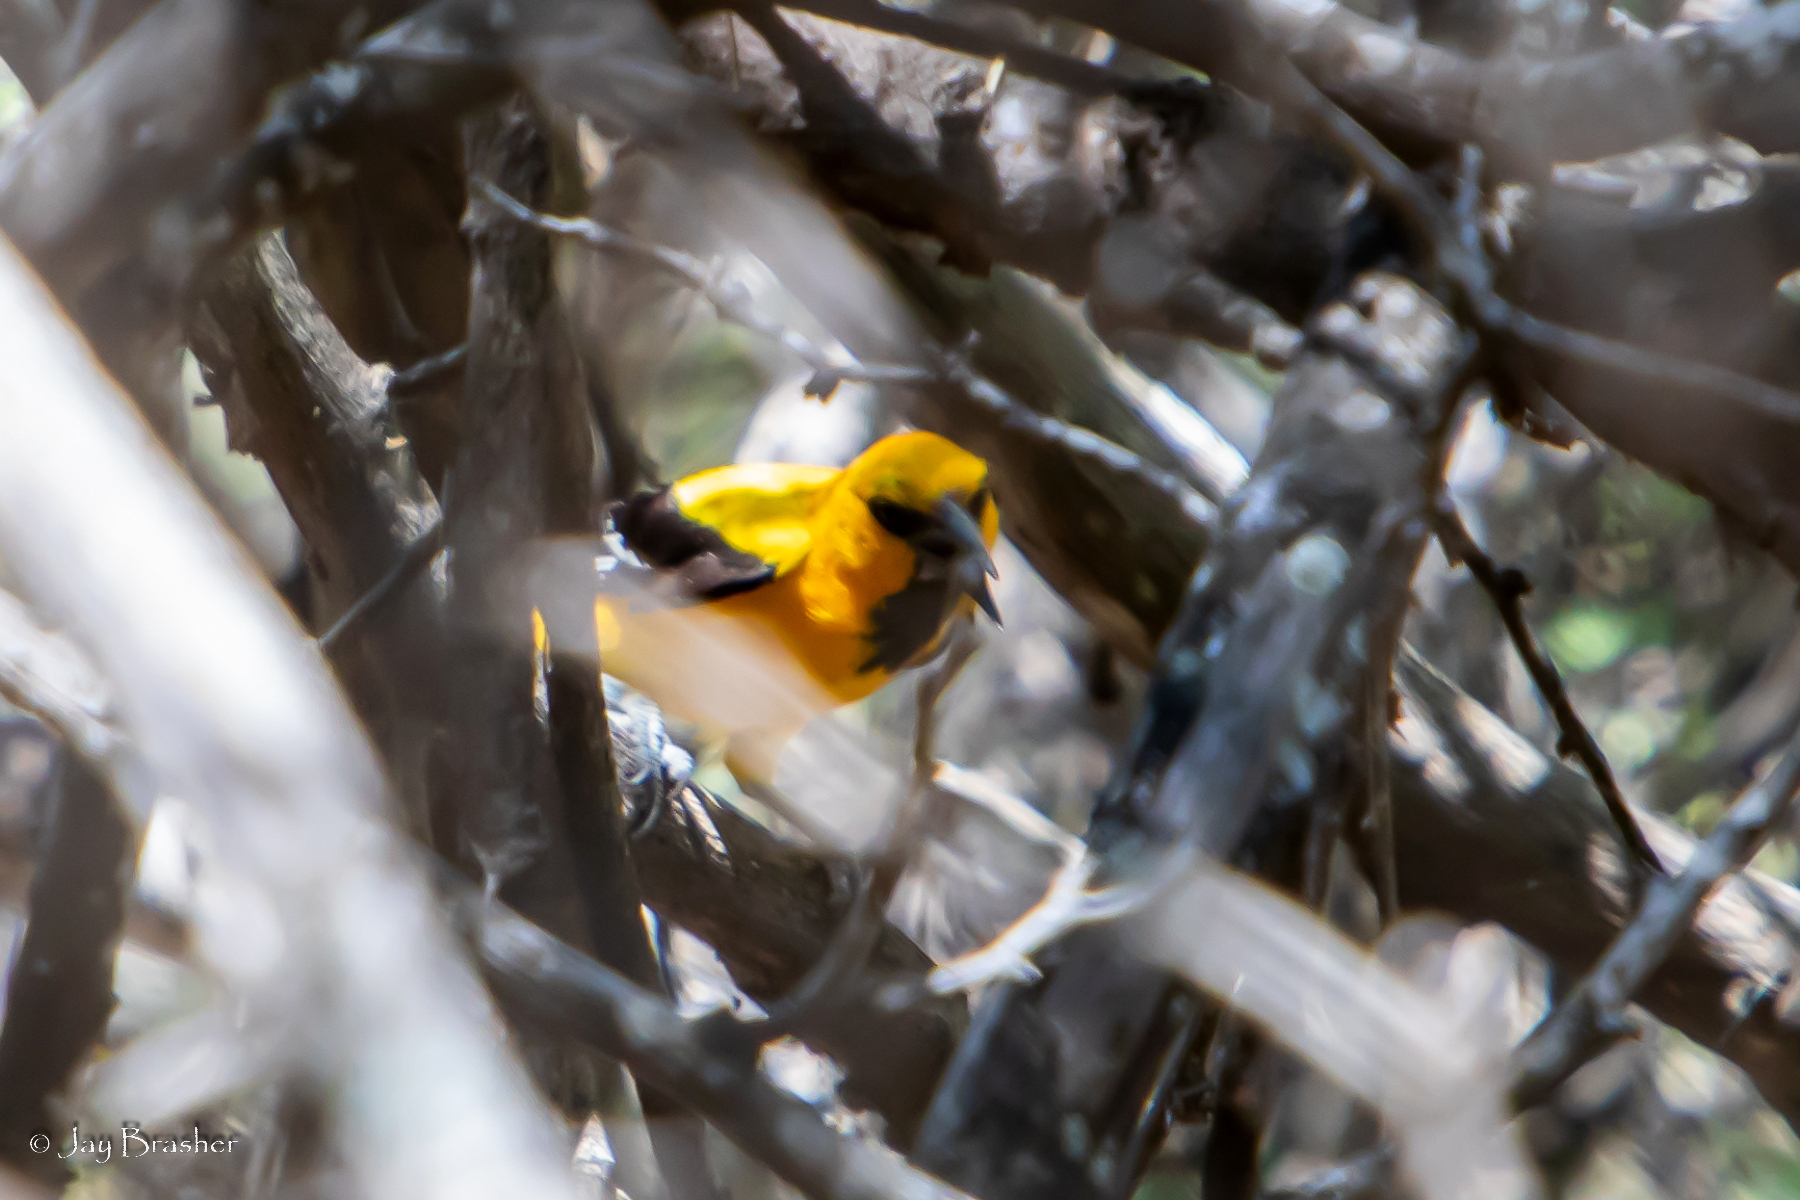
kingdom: Animalia
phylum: Chordata
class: Aves
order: Passeriformes
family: Icteridae
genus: Icterus
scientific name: Icterus nigrogularis
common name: Yellow oriole
